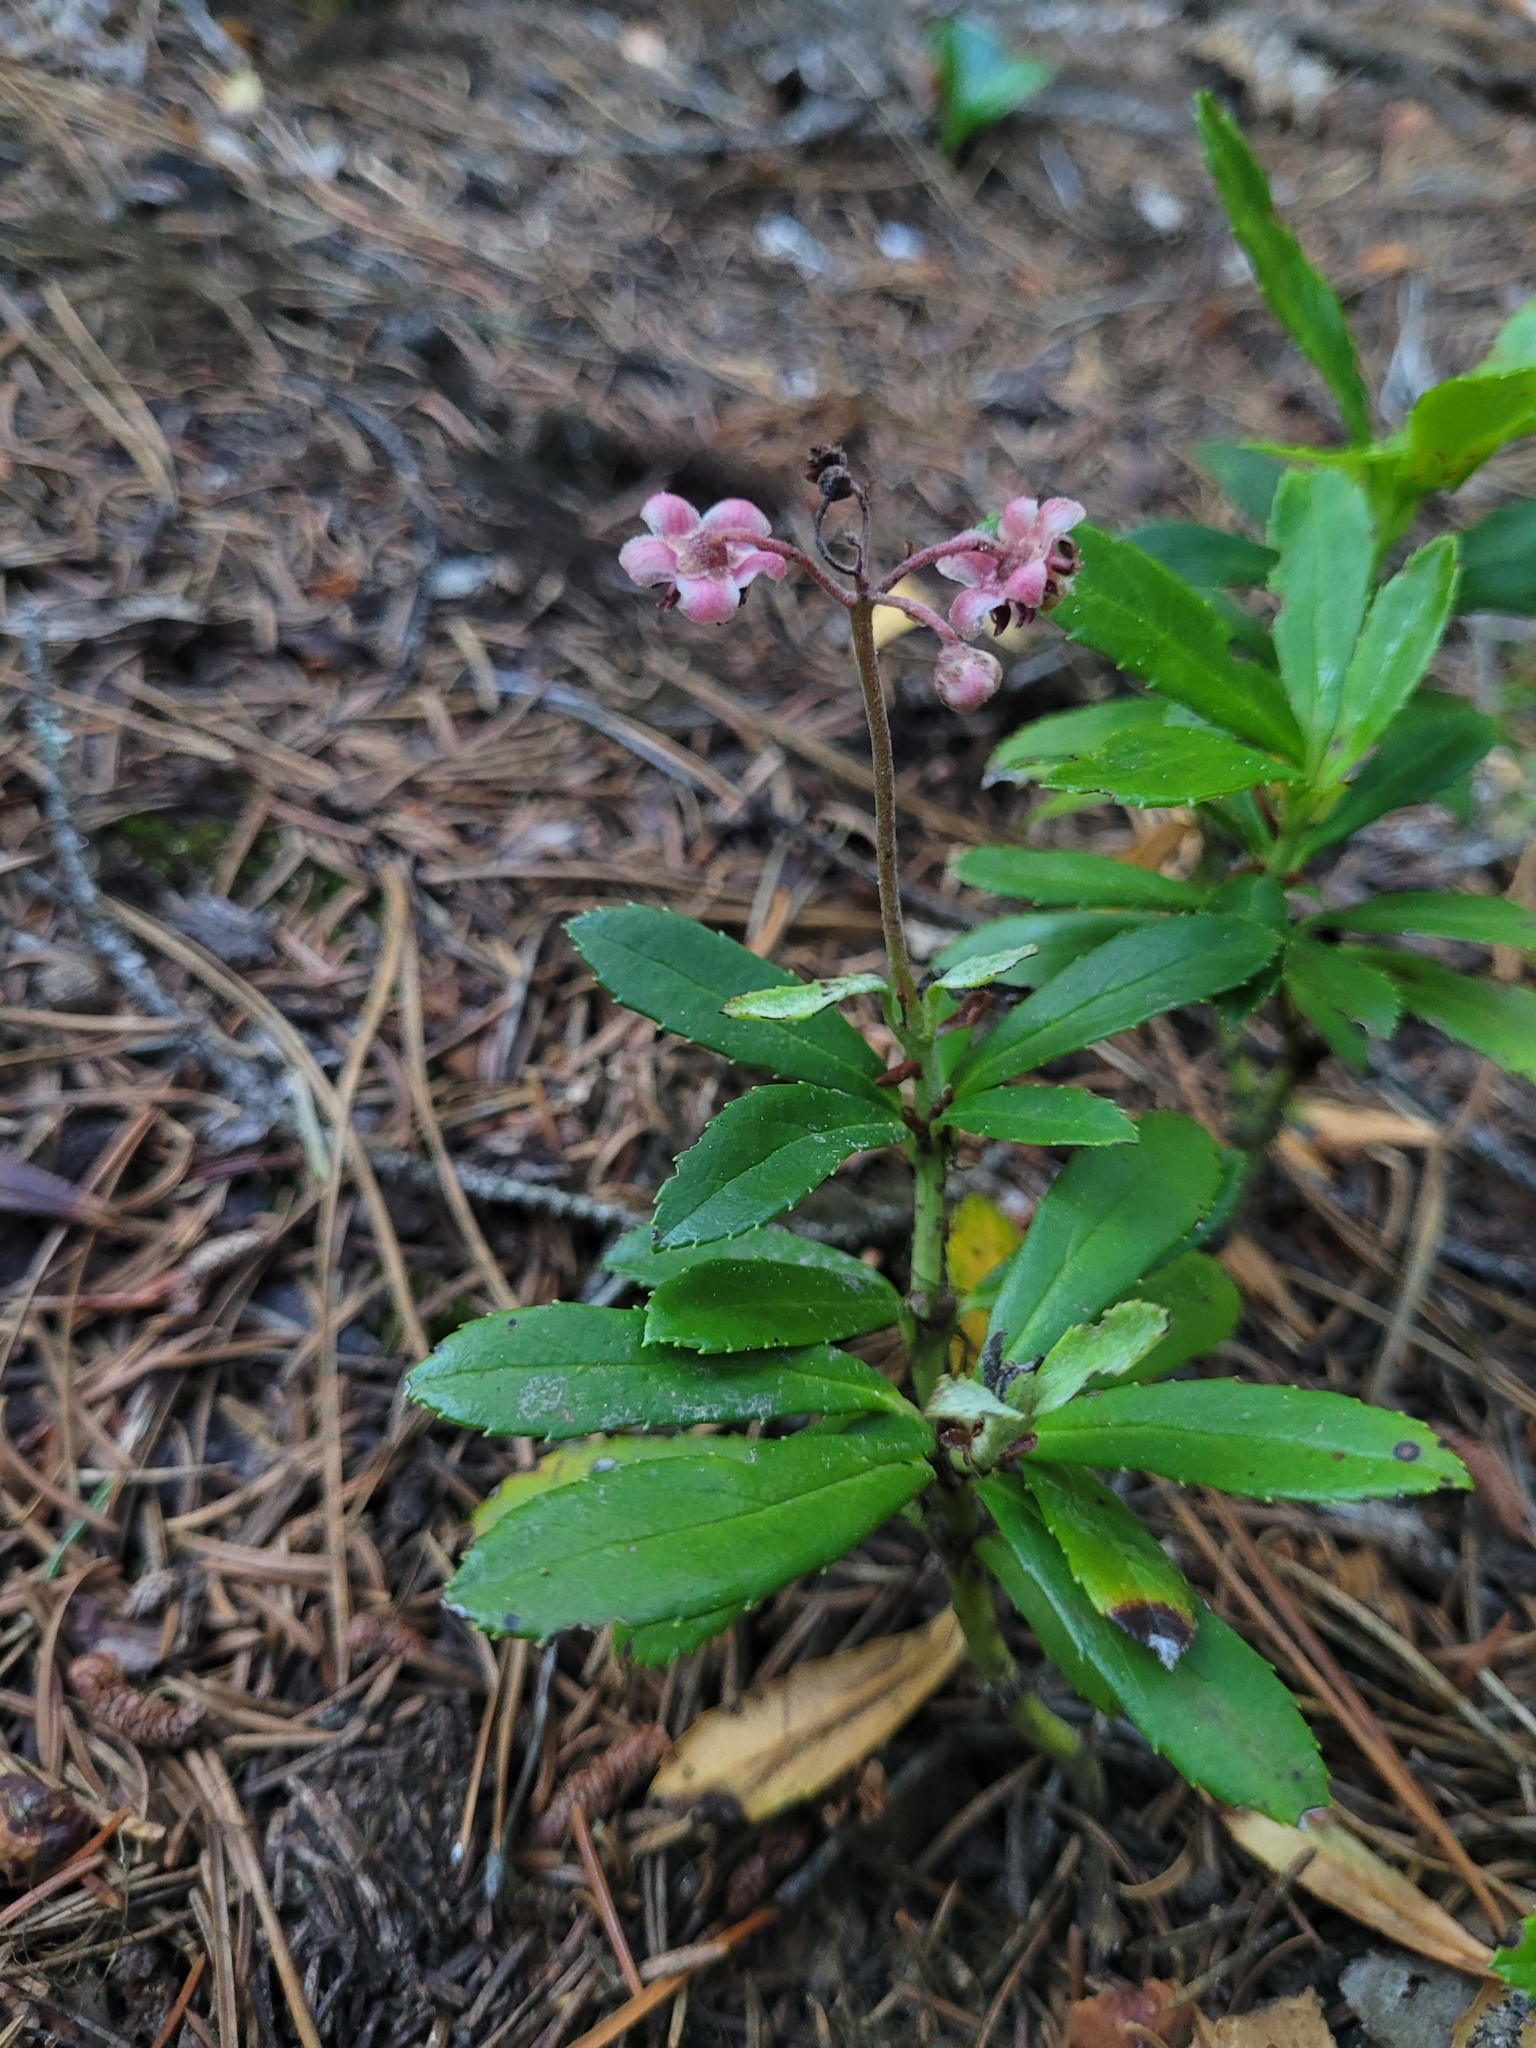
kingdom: Plantae
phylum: Tracheophyta
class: Magnoliopsida
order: Ericales
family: Ericaceae
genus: Chimaphila
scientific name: Chimaphila umbellata
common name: Pipsissewa
